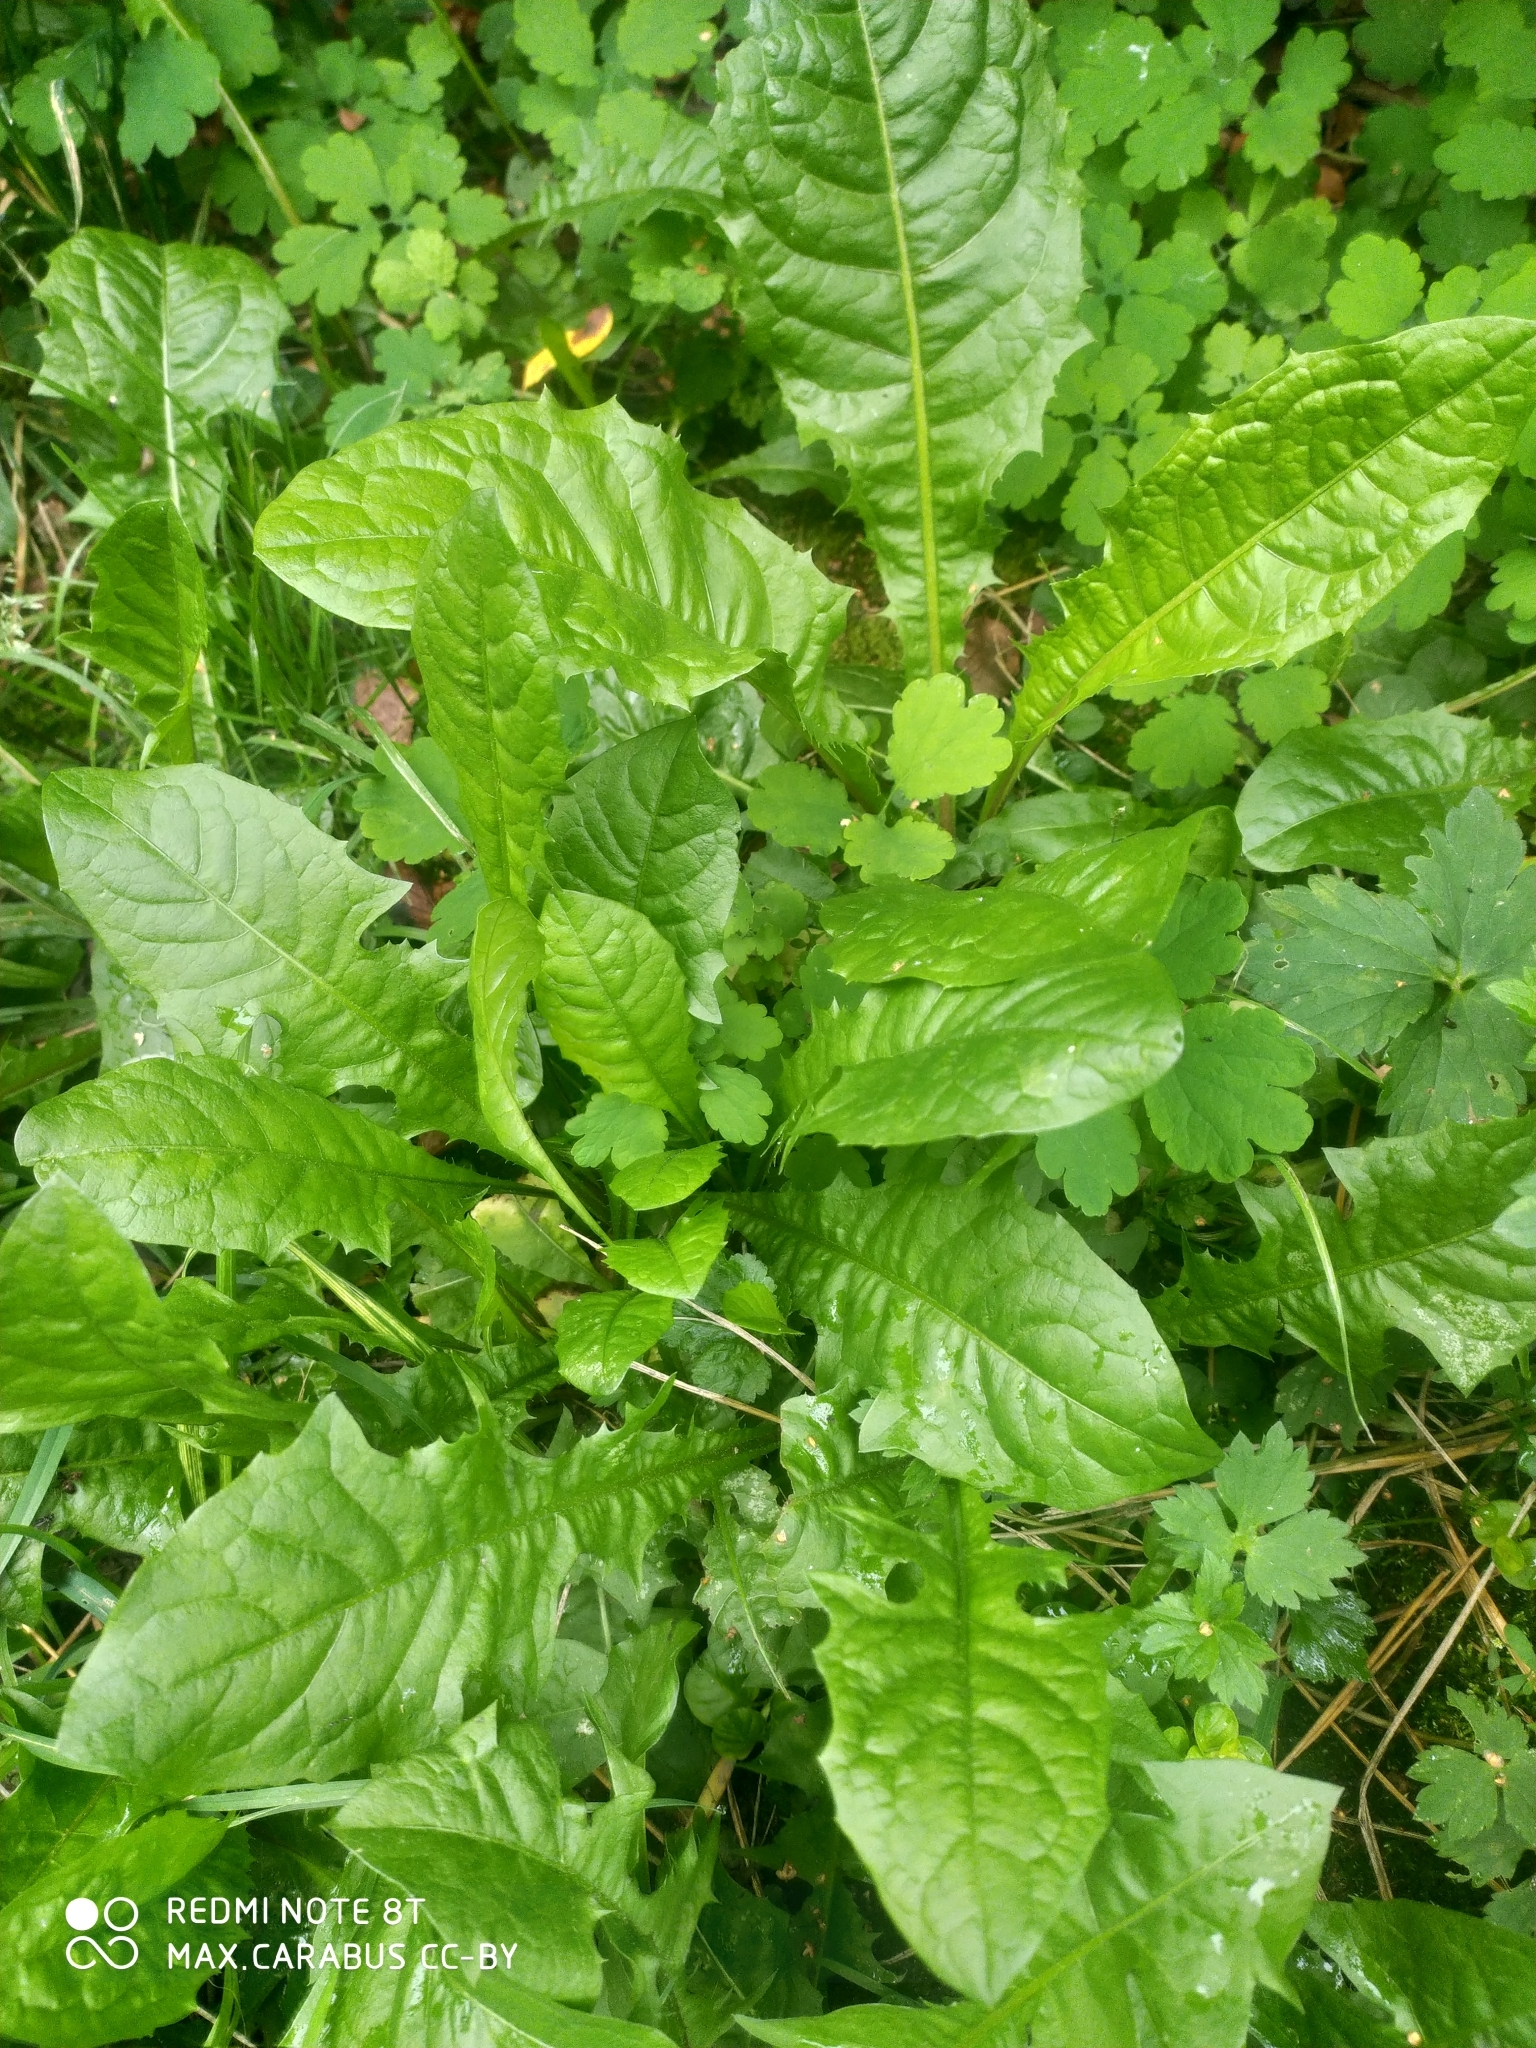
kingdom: Plantae
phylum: Tracheophyta
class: Magnoliopsida
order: Asterales
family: Asteraceae
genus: Taraxacum
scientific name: Taraxacum officinale
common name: Common dandelion
